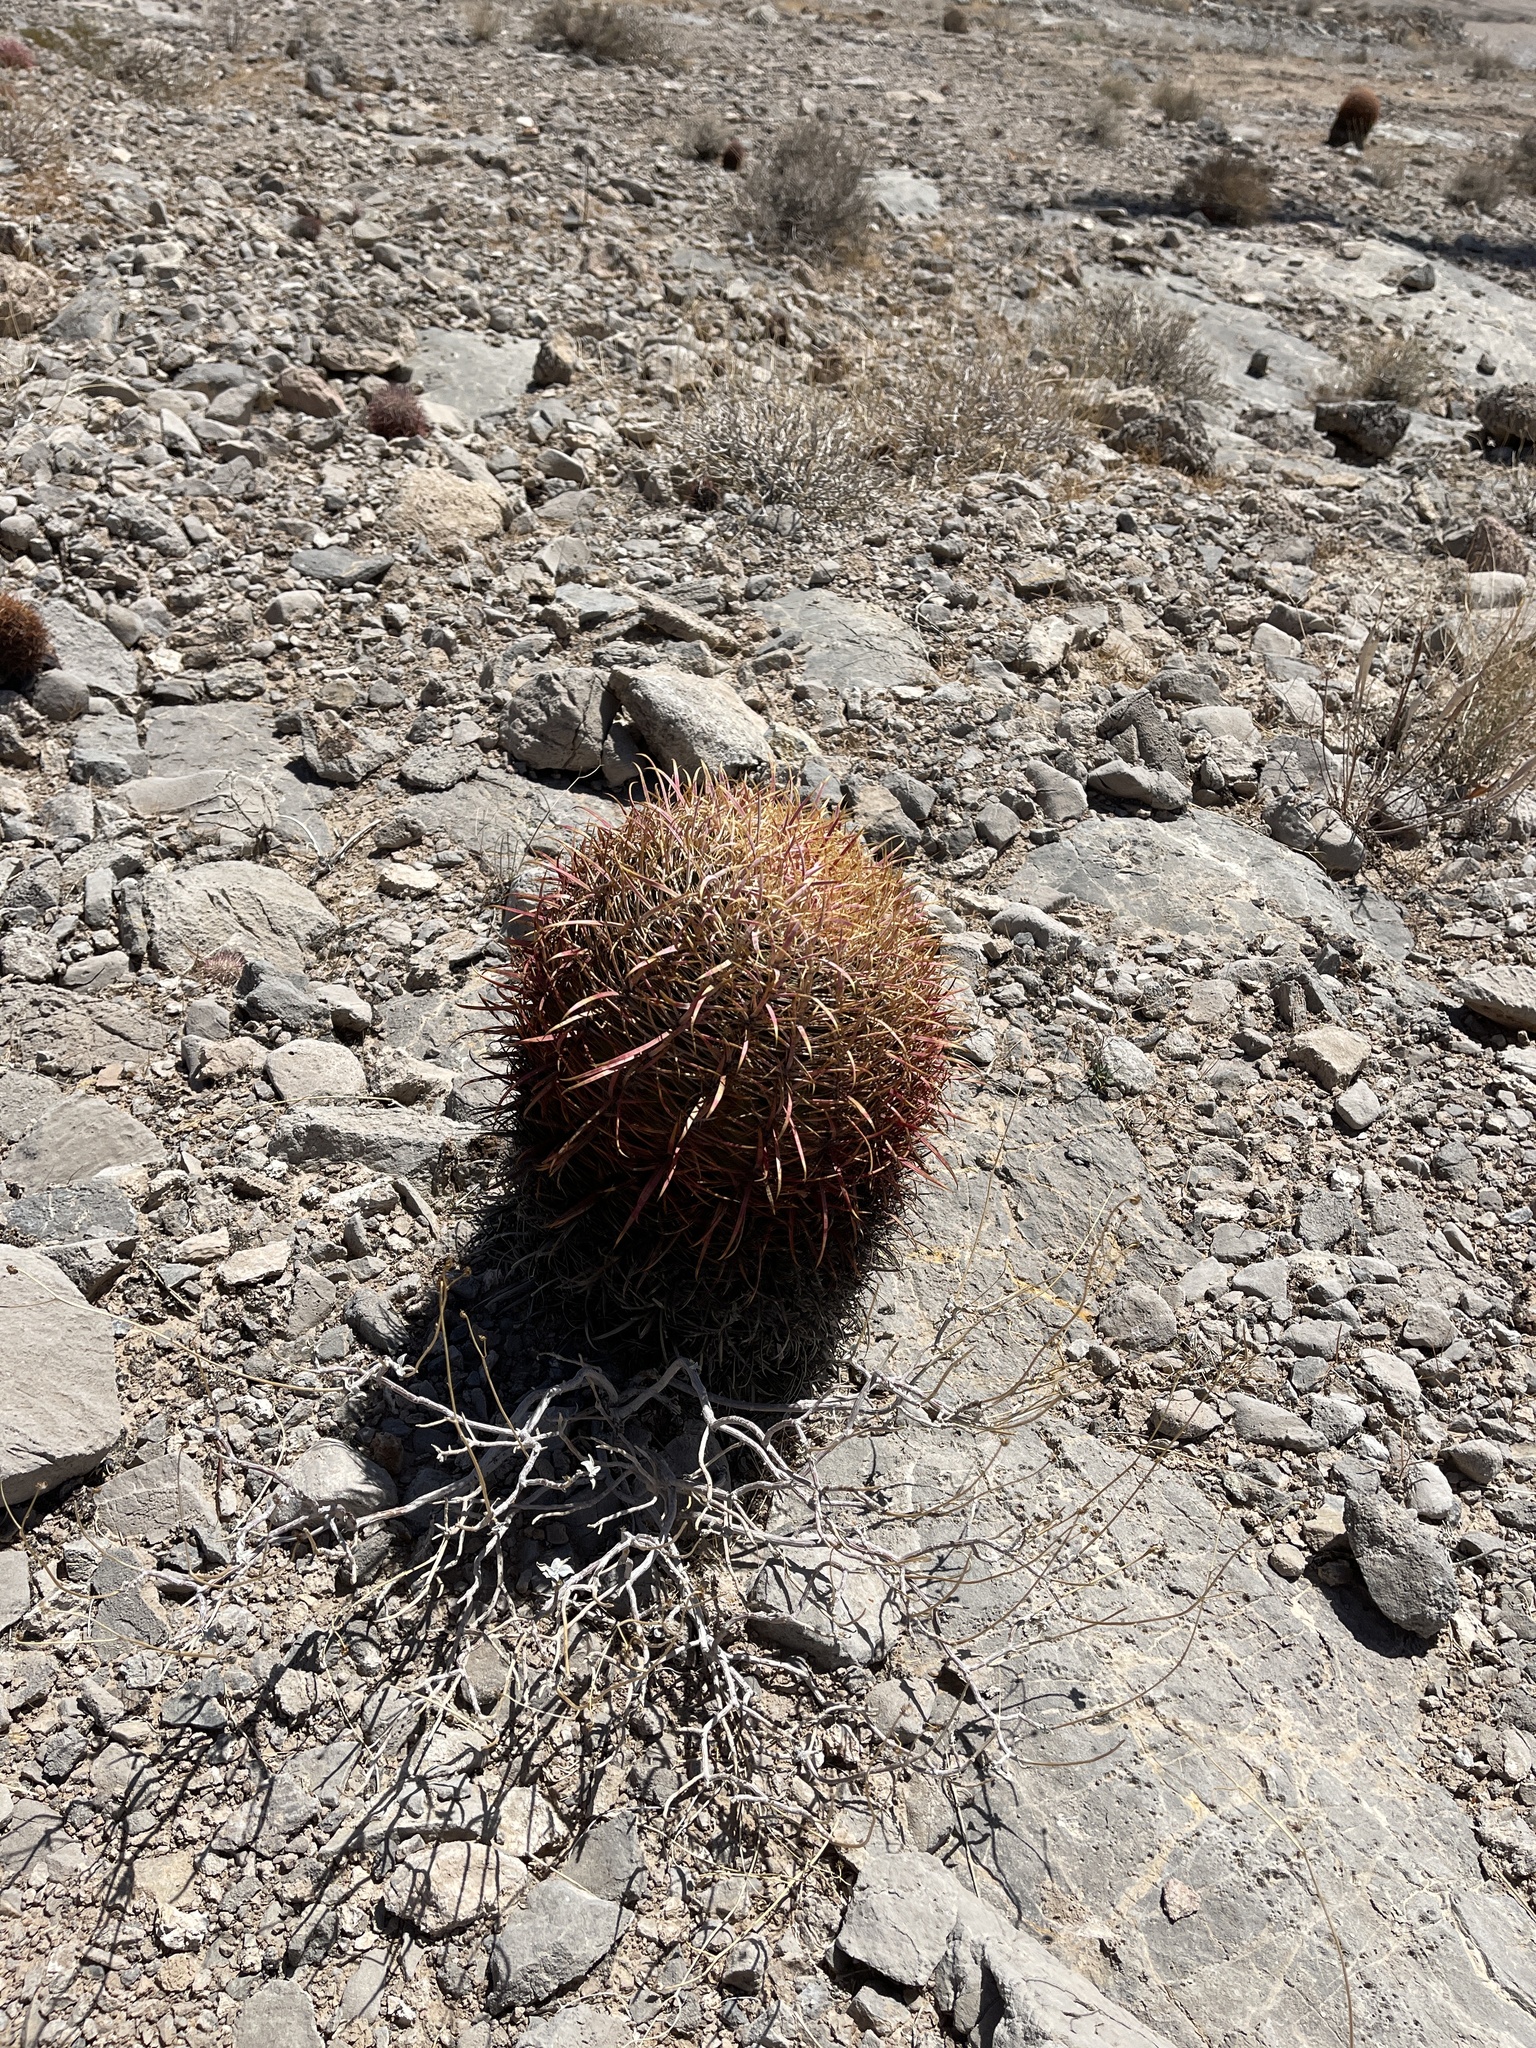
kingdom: Plantae
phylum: Tracheophyta
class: Magnoliopsida
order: Caryophyllales
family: Cactaceae
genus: Ferocactus
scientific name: Ferocactus cylindraceus
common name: California barrel cactus
